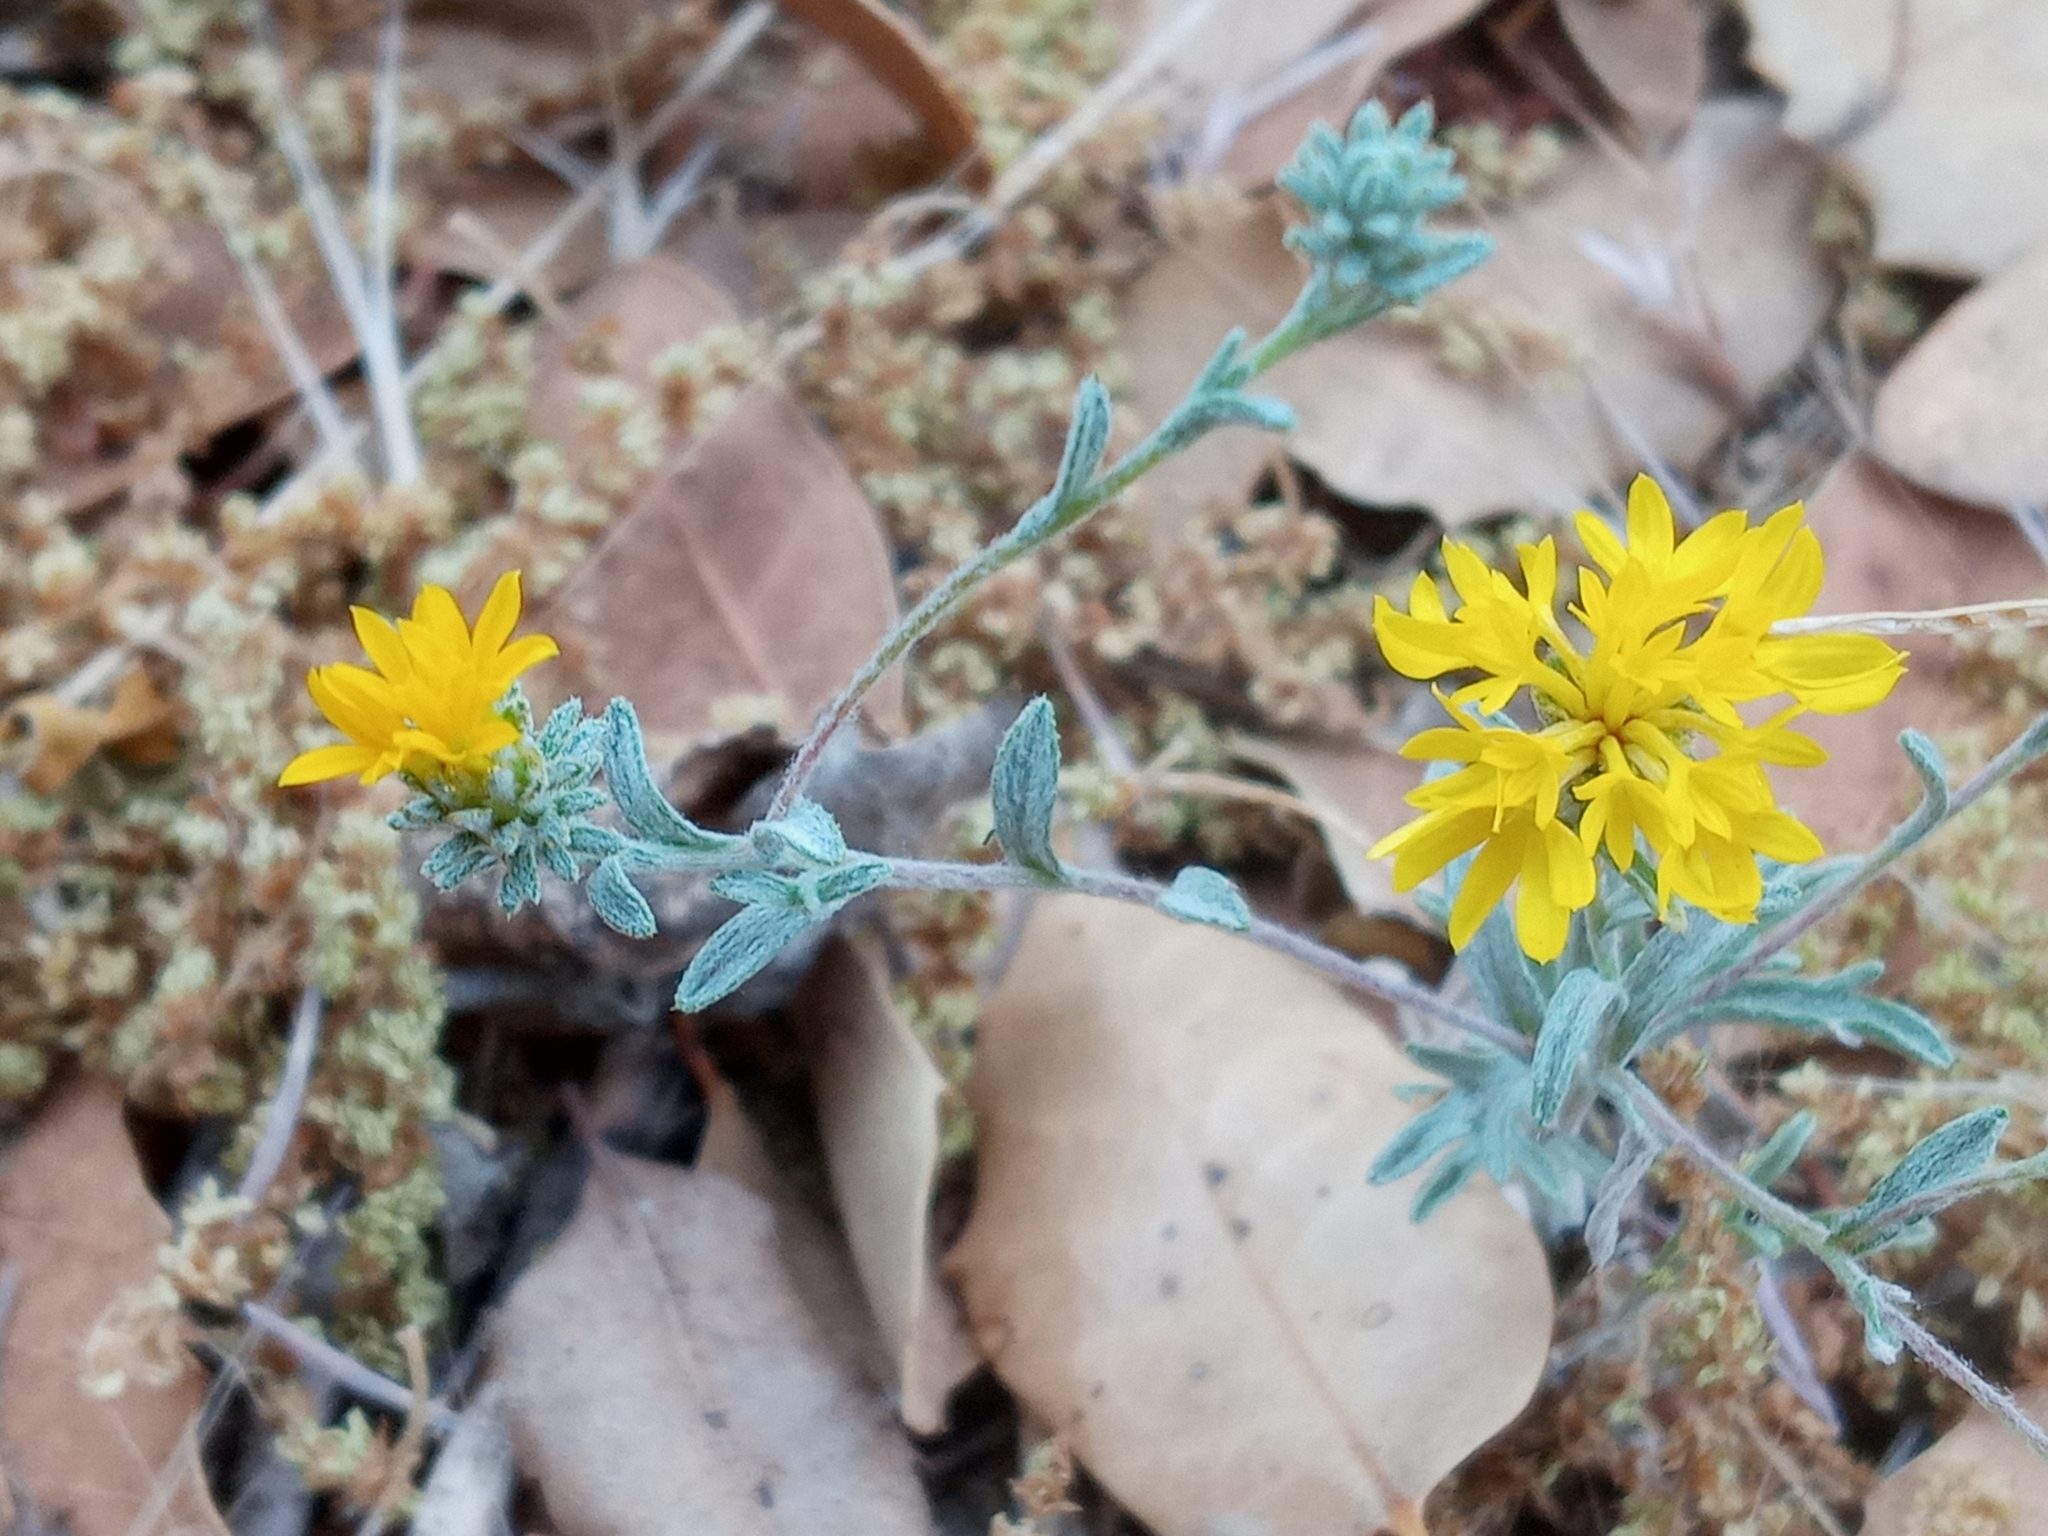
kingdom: Plantae
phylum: Tracheophyta
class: Magnoliopsida
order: Asterales
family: Asteraceae
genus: Lessingia
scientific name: Lessingia glandulifera
